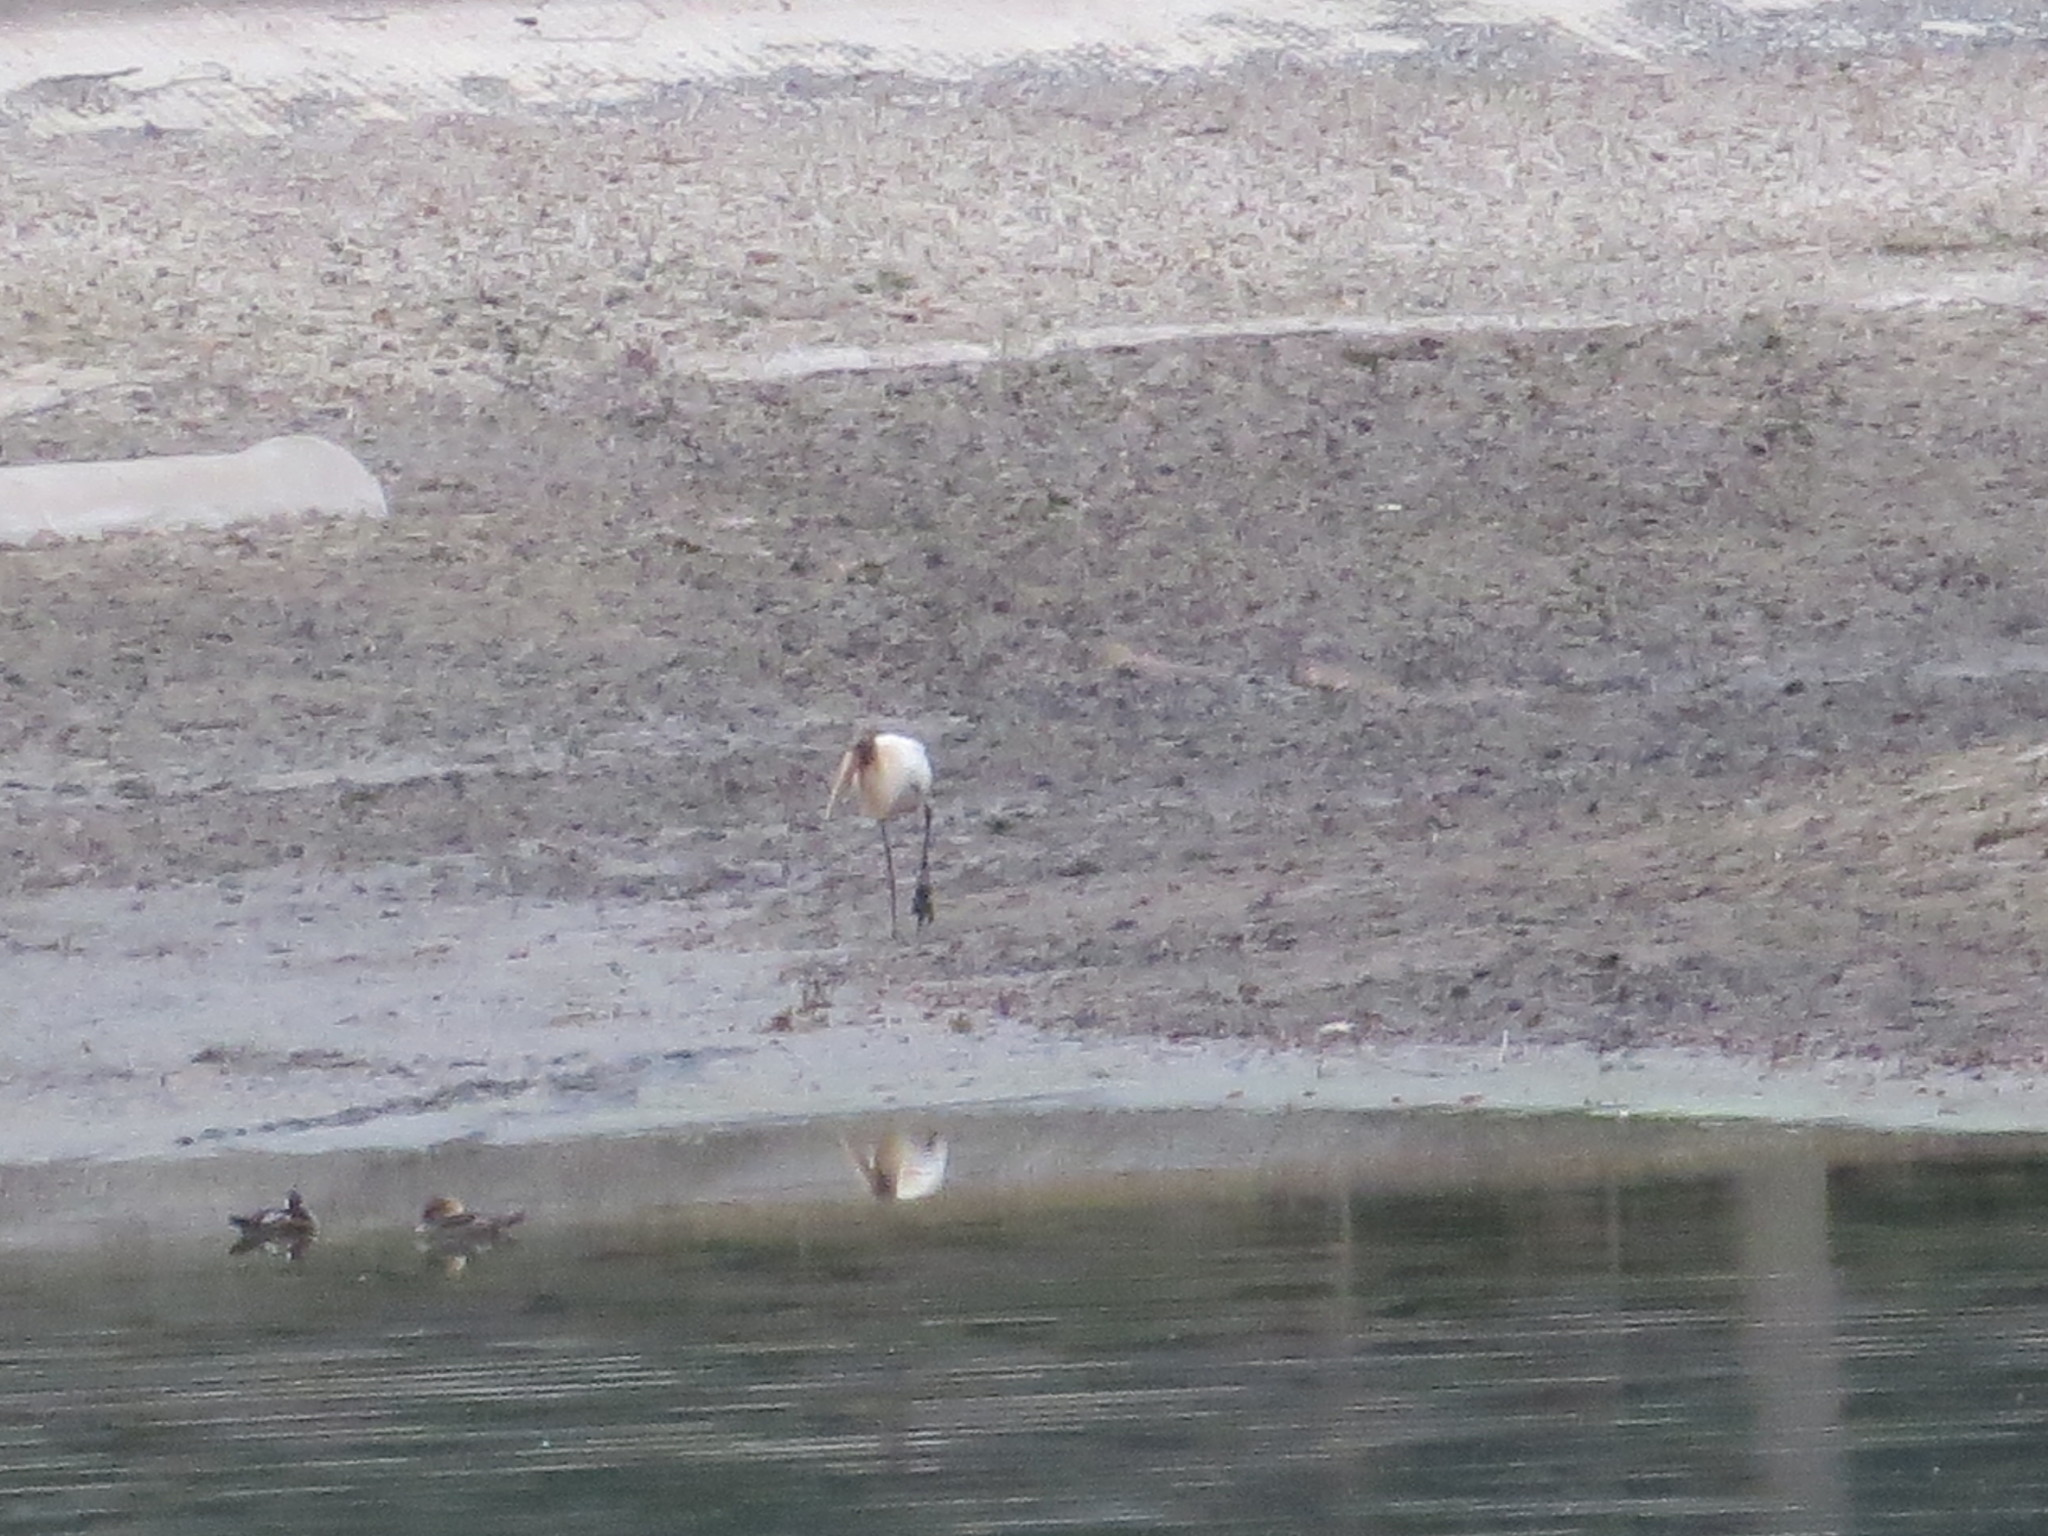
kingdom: Animalia
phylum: Chordata
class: Aves
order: Ciconiiformes
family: Ciconiidae
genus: Mycteria
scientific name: Mycteria americana
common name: Wood stork
